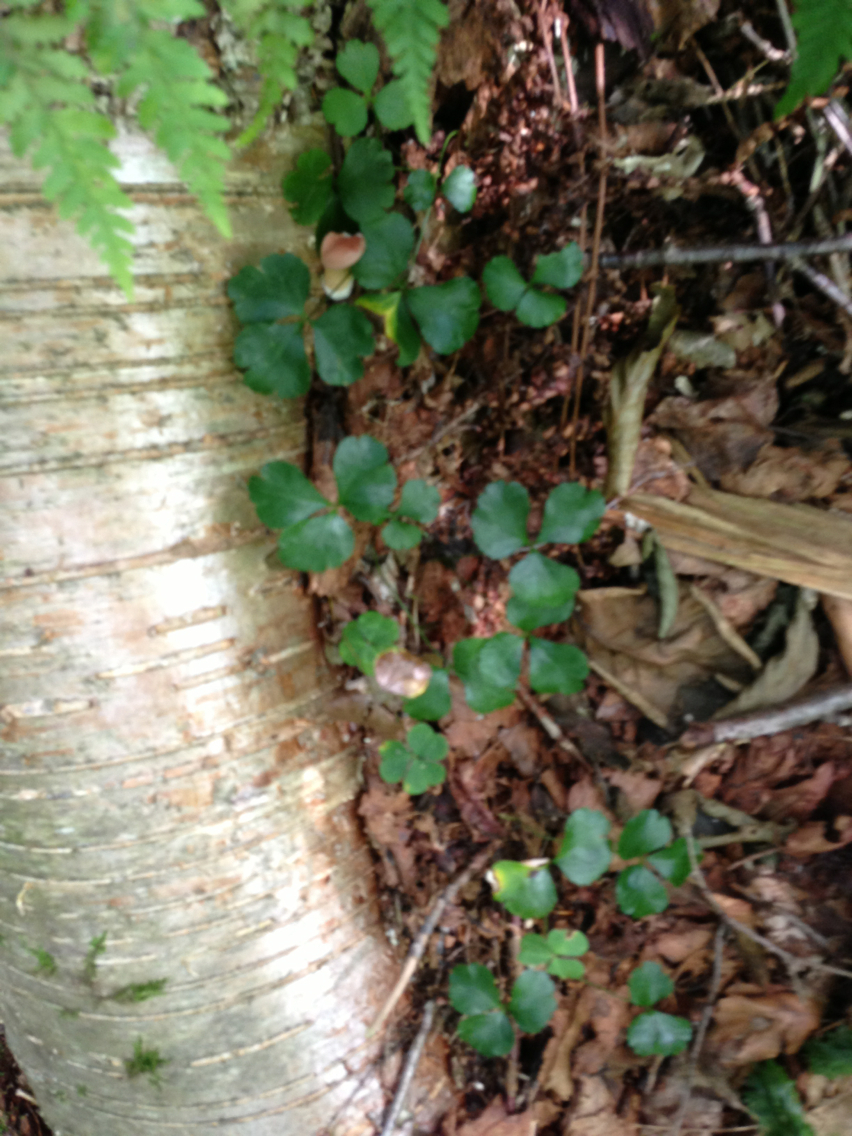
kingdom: Plantae
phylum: Tracheophyta
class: Magnoliopsida
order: Ranunculales
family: Ranunculaceae
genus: Coptis
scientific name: Coptis trifolia
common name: Canker-root
